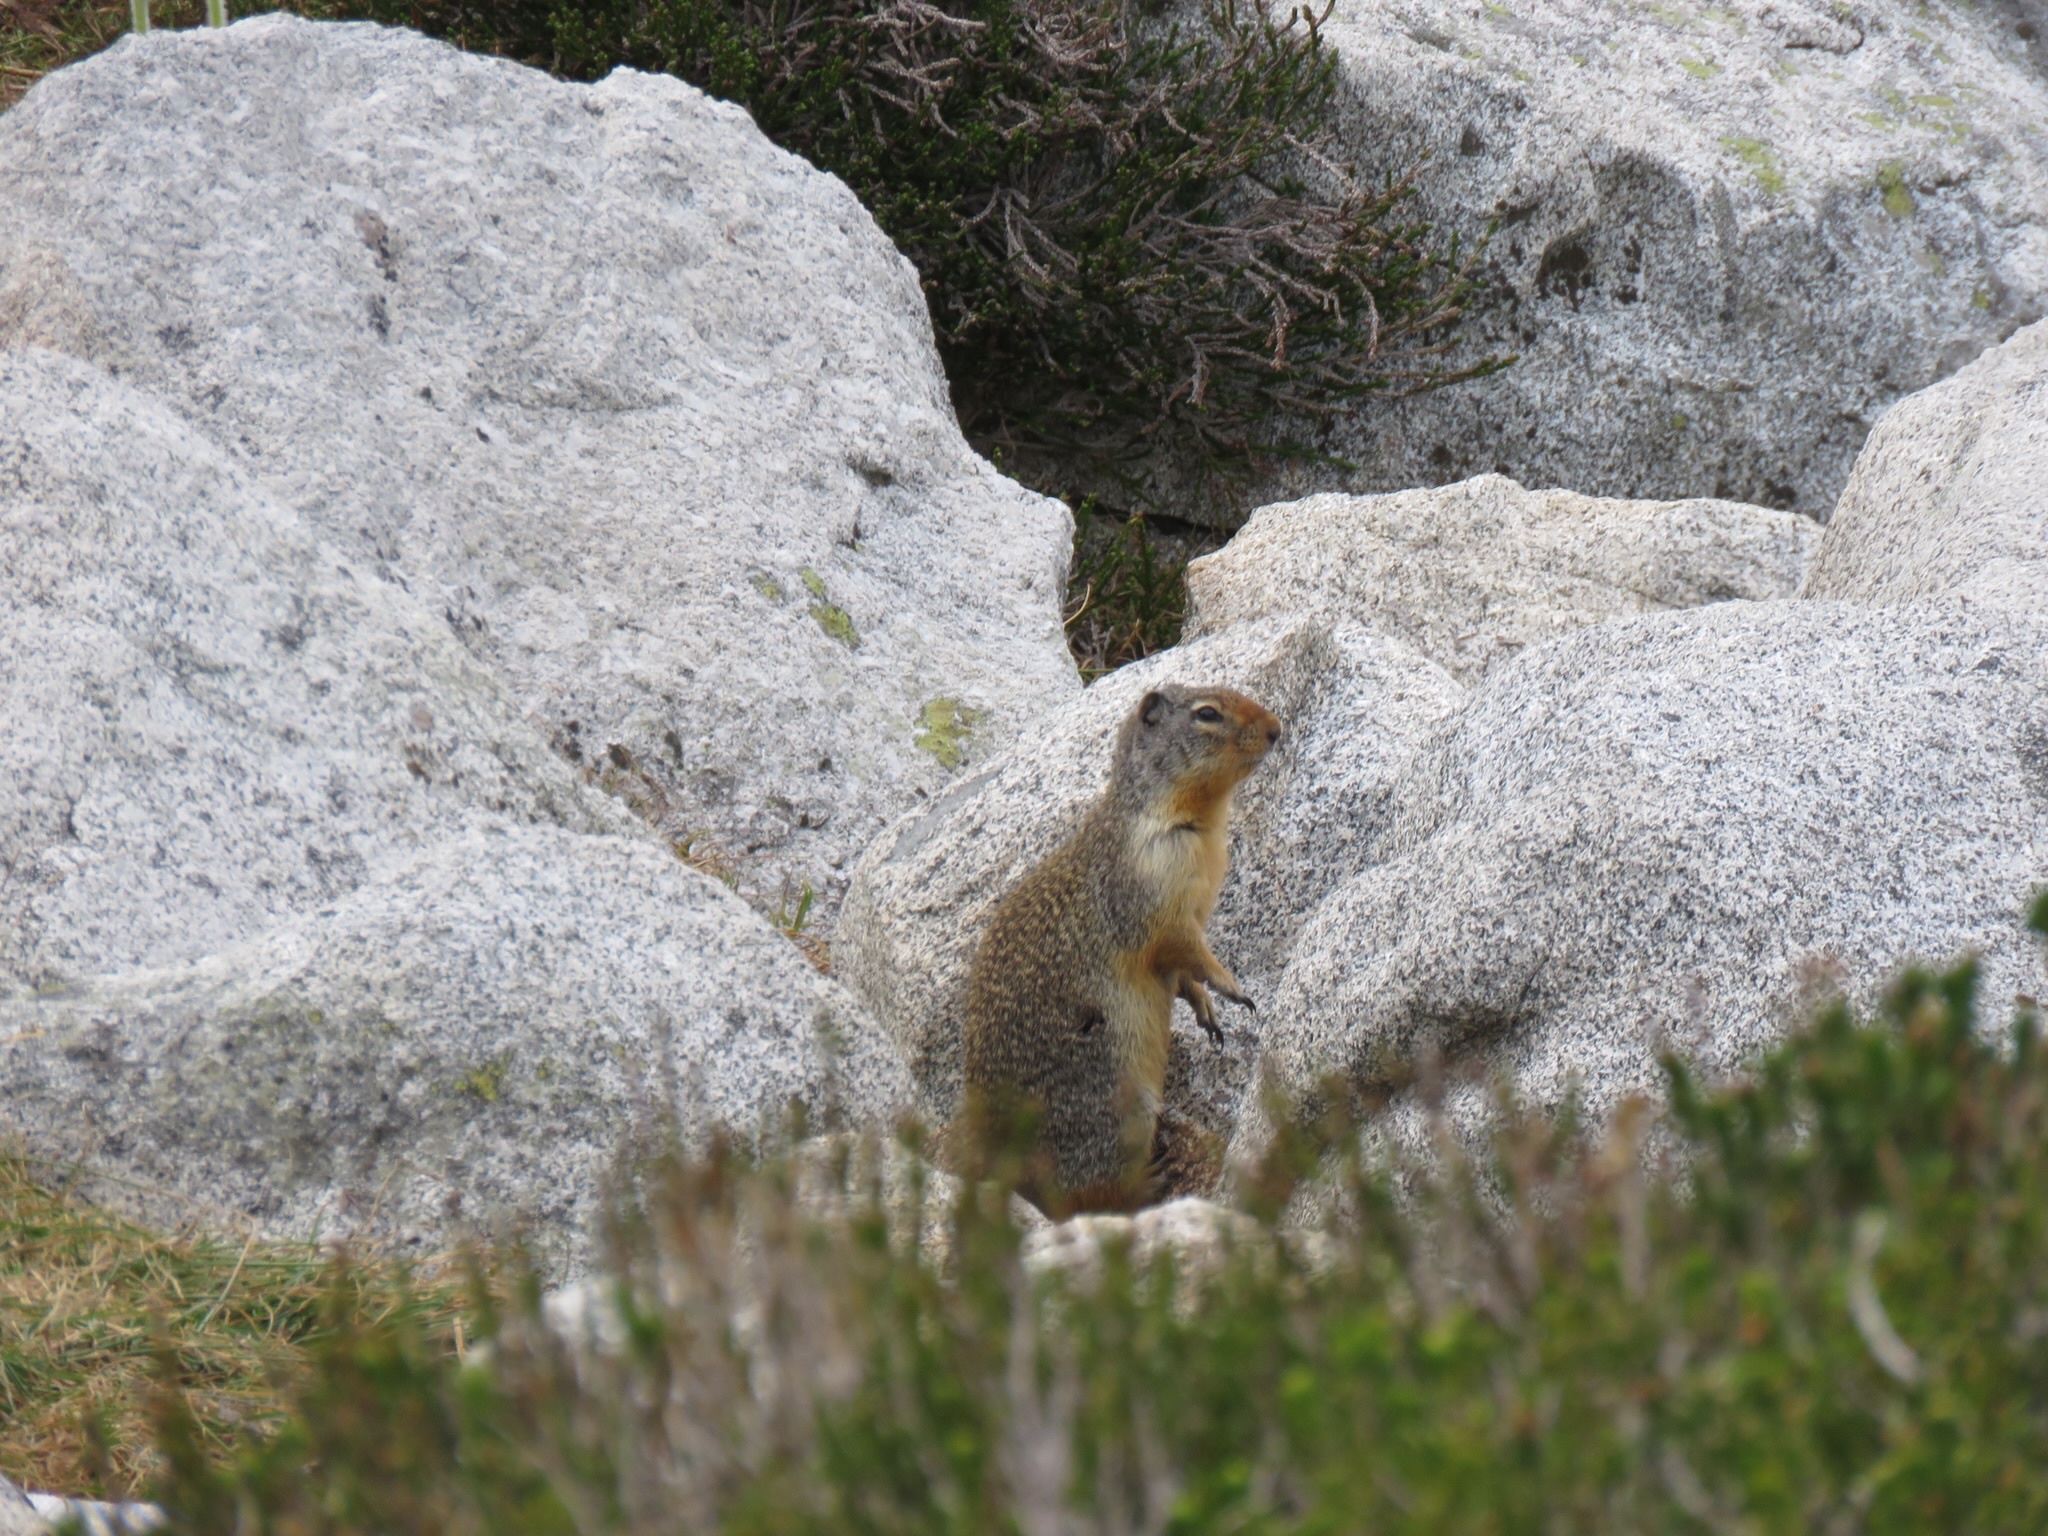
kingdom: Animalia
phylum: Chordata
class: Mammalia
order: Rodentia
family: Sciuridae
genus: Urocitellus
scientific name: Urocitellus columbianus
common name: Columbian ground squirrel
